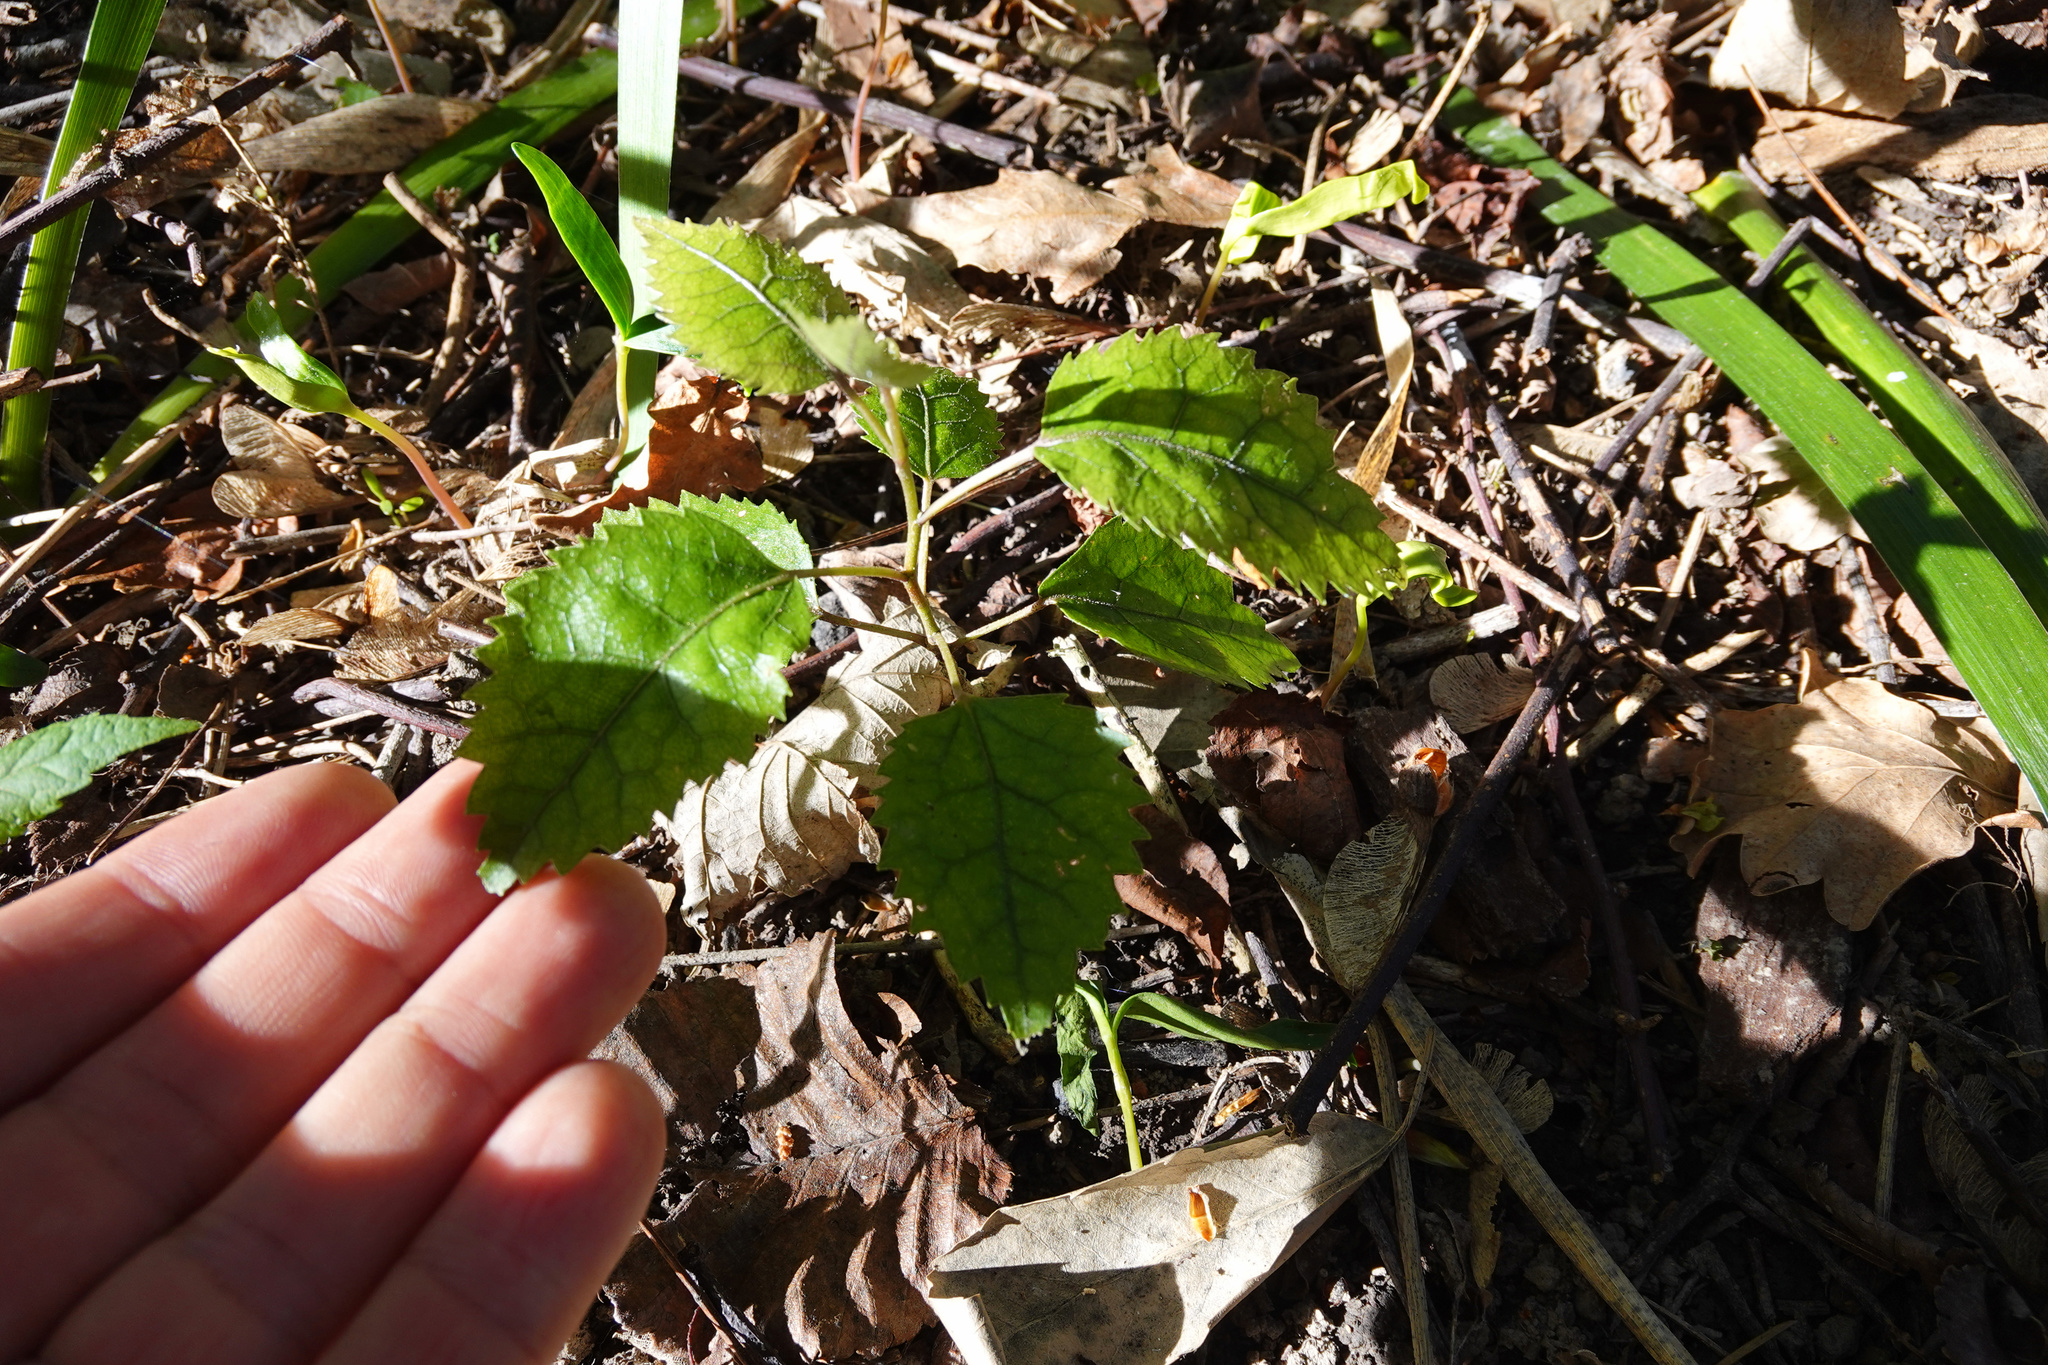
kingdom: Plantae
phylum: Tracheophyta
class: Magnoliopsida
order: Oxalidales
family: Elaeocarpaceae
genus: Aristotelia
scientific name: Aristotelia serrata
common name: New zealand wineberry
